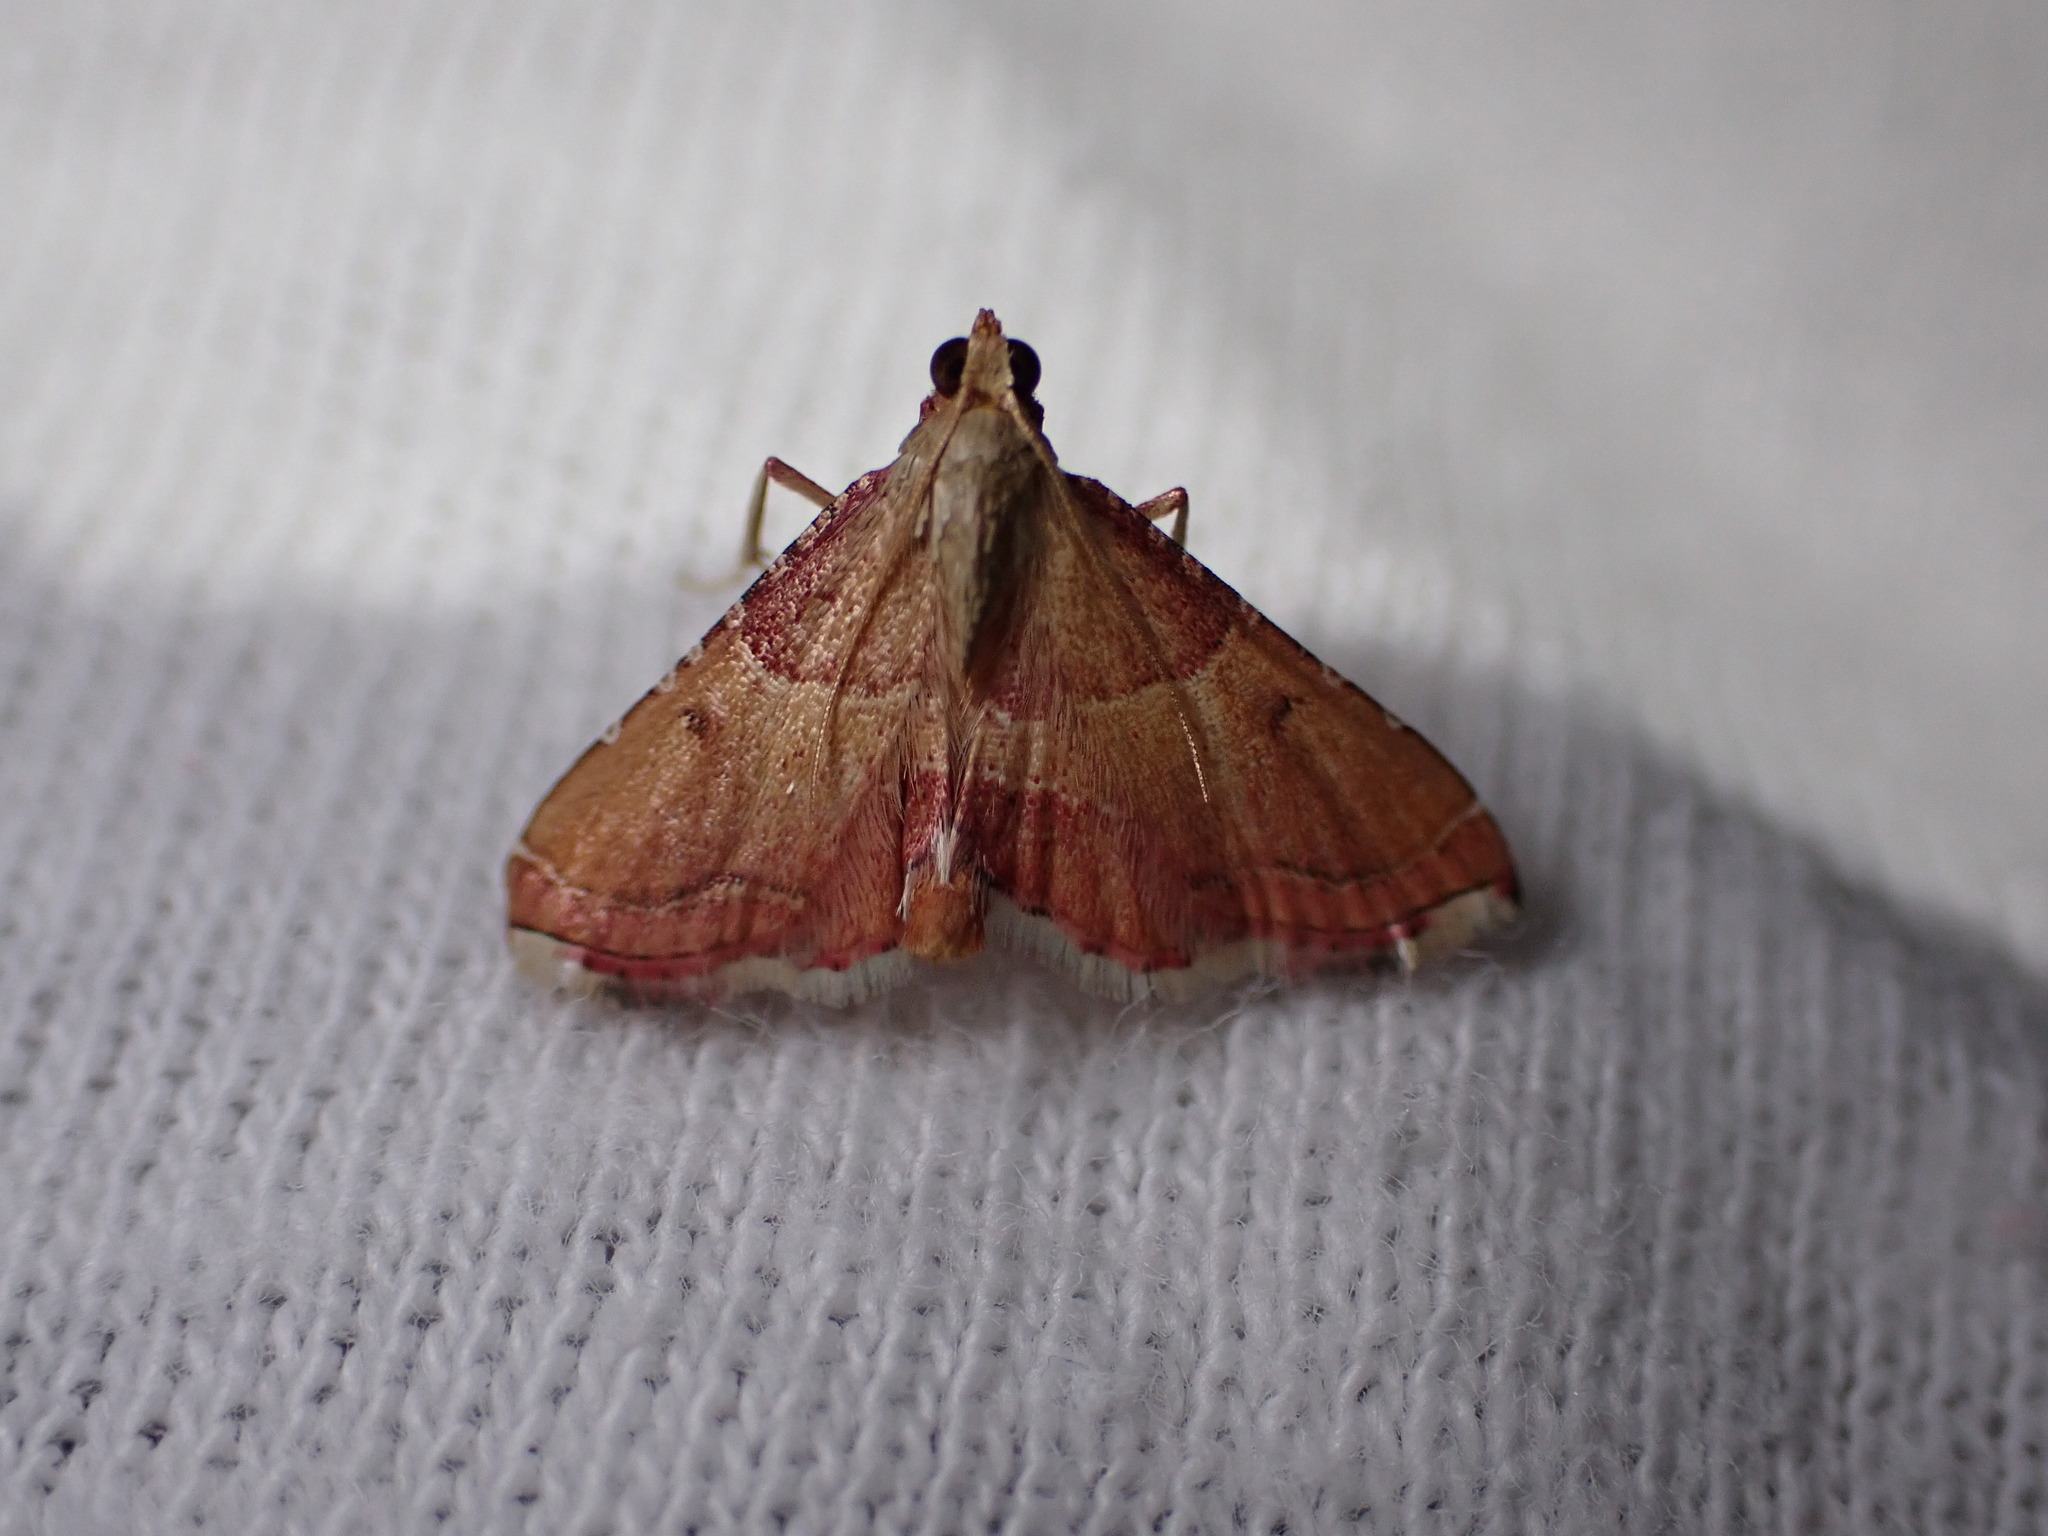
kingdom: Animalia
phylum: Arthropoda
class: Insecta
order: Lepidoptera
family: Pyralidae
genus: Endotricha
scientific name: Endotricha flammealis
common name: Rosy tabby
